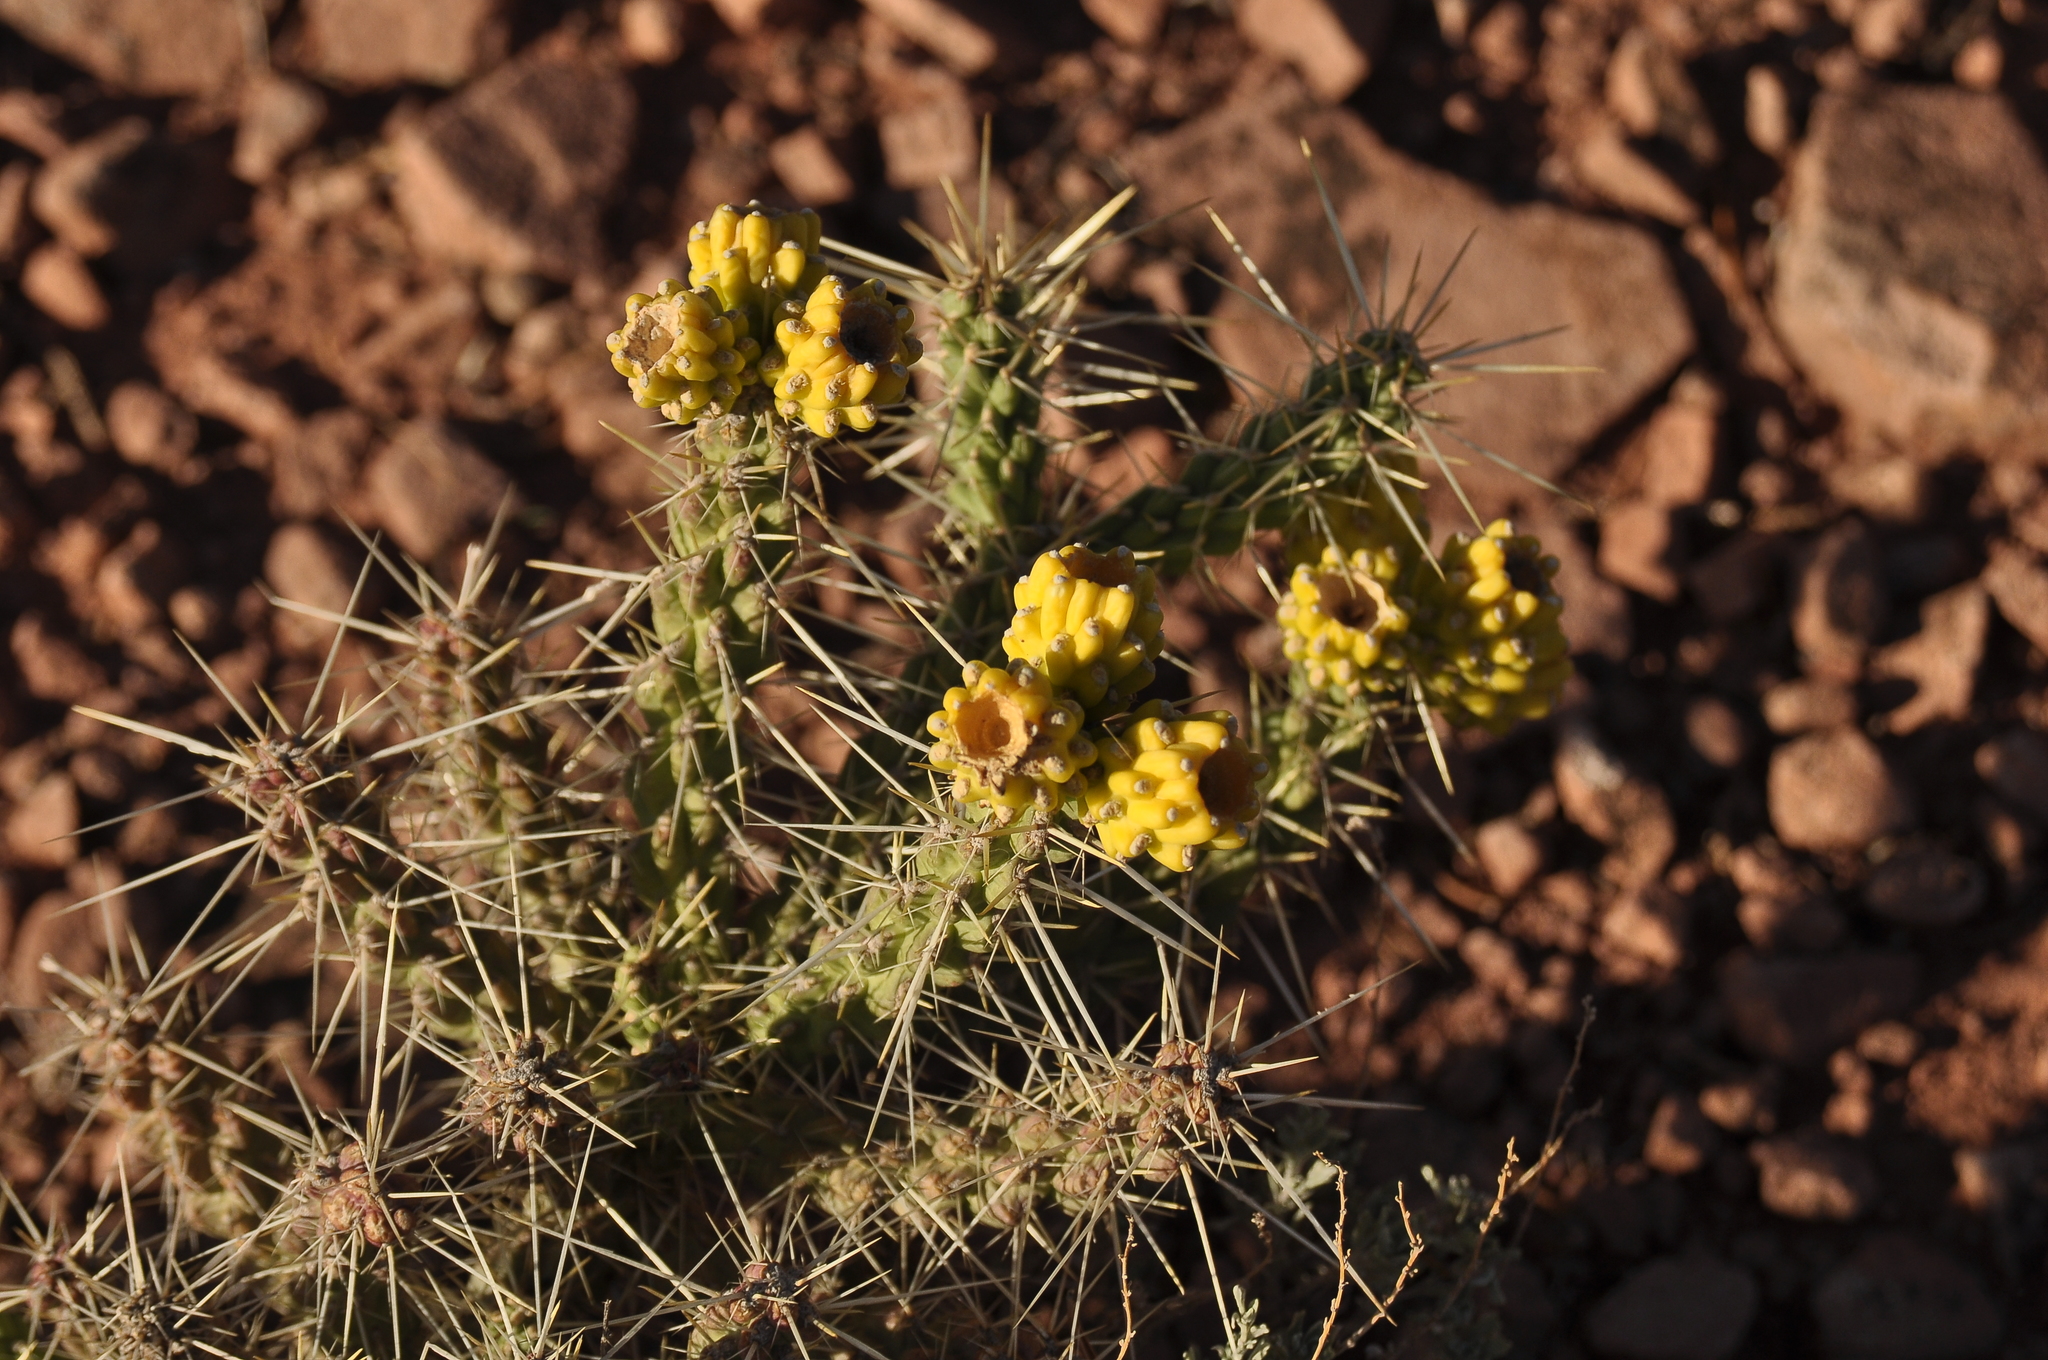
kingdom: Plantae
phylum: Tracheophyta
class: Magnoliopsida
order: Caryophyllales
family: Cactaceae
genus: Cylindropuntia
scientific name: Cylindropuntia whipplei
